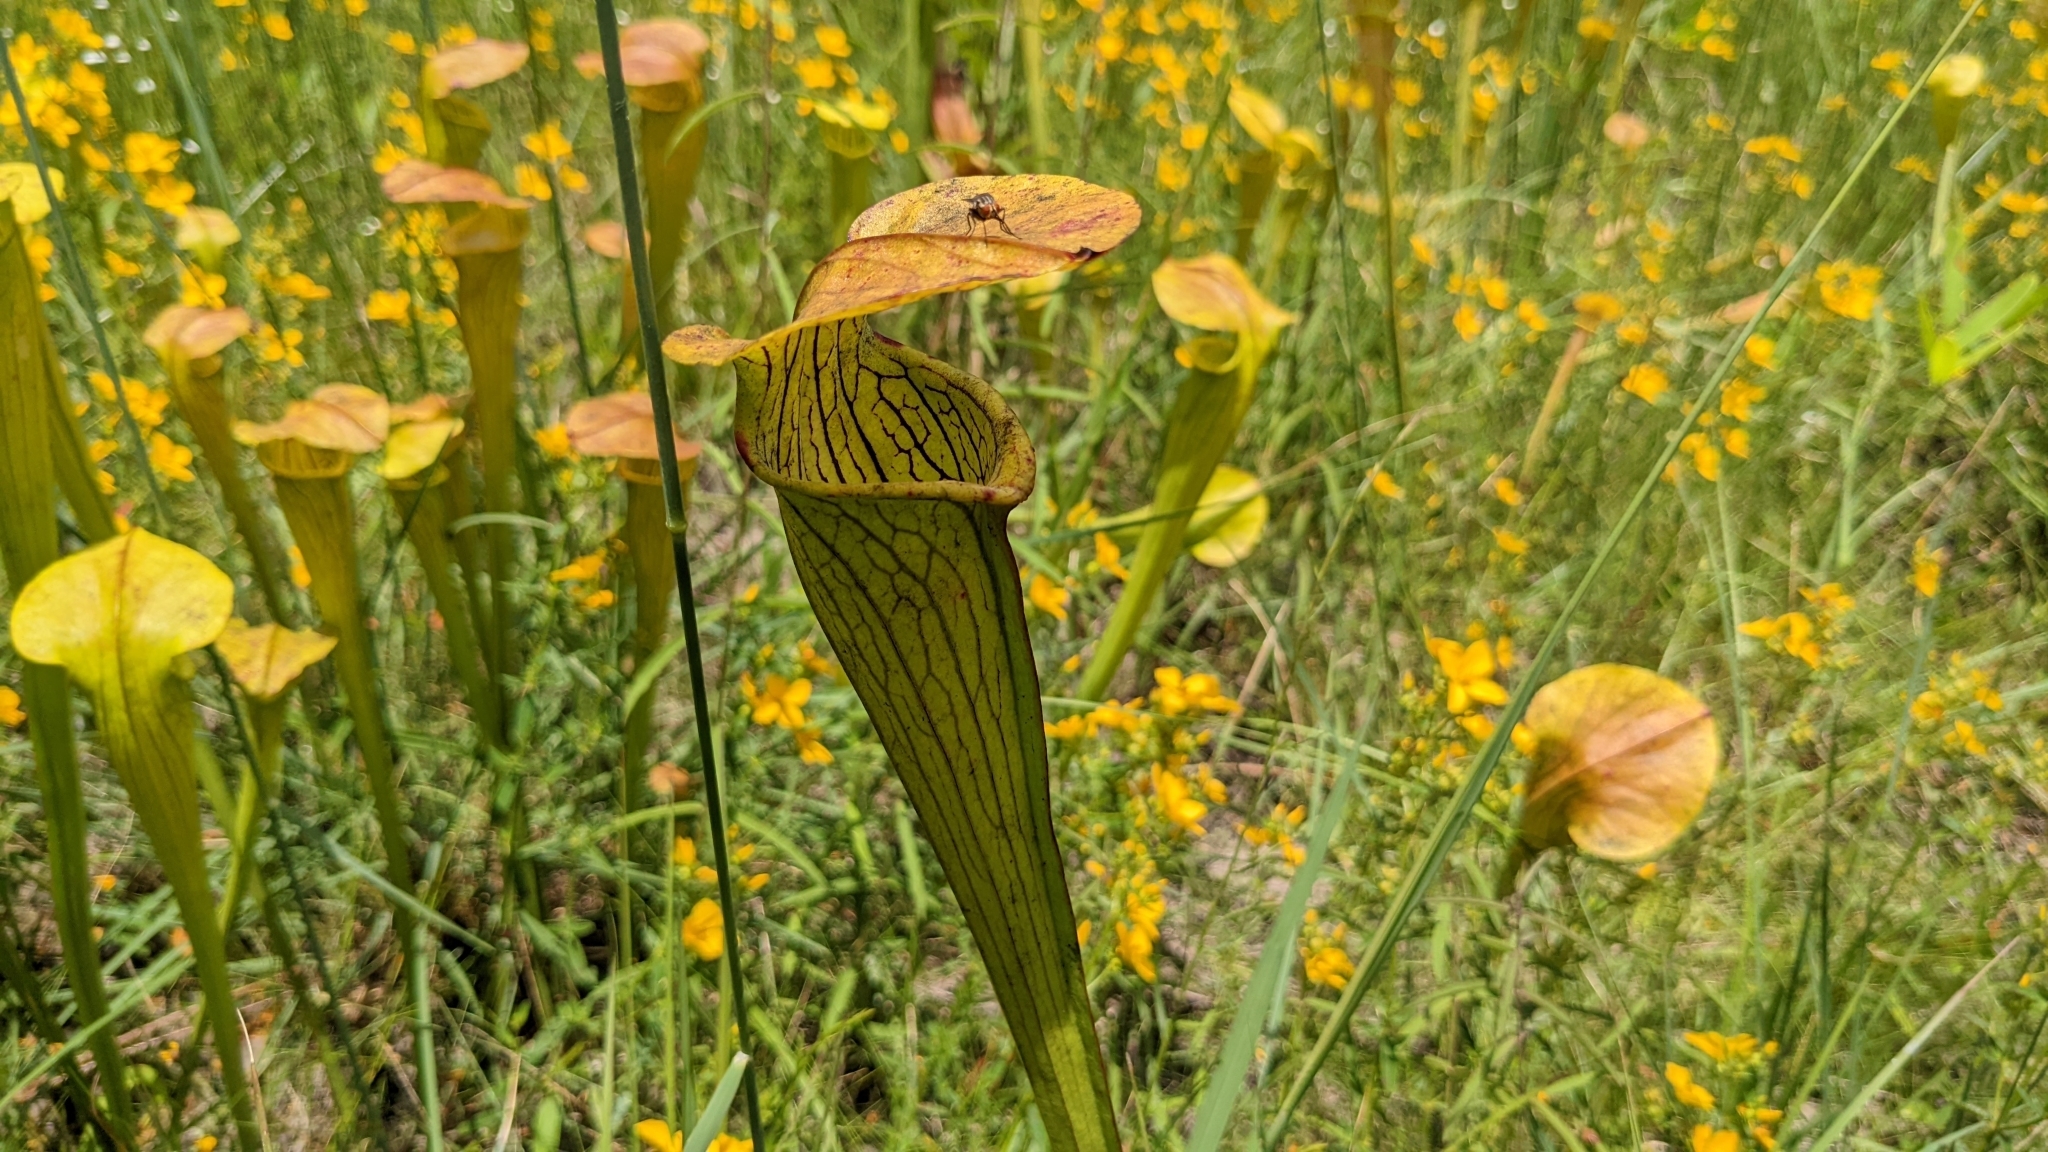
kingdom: Plantae
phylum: Tracheophyta
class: Magnoliopsida
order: Ericales
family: Sarraceniaceae
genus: Sarracenia
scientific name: Sarracenia alata
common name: Yellow trumpets
